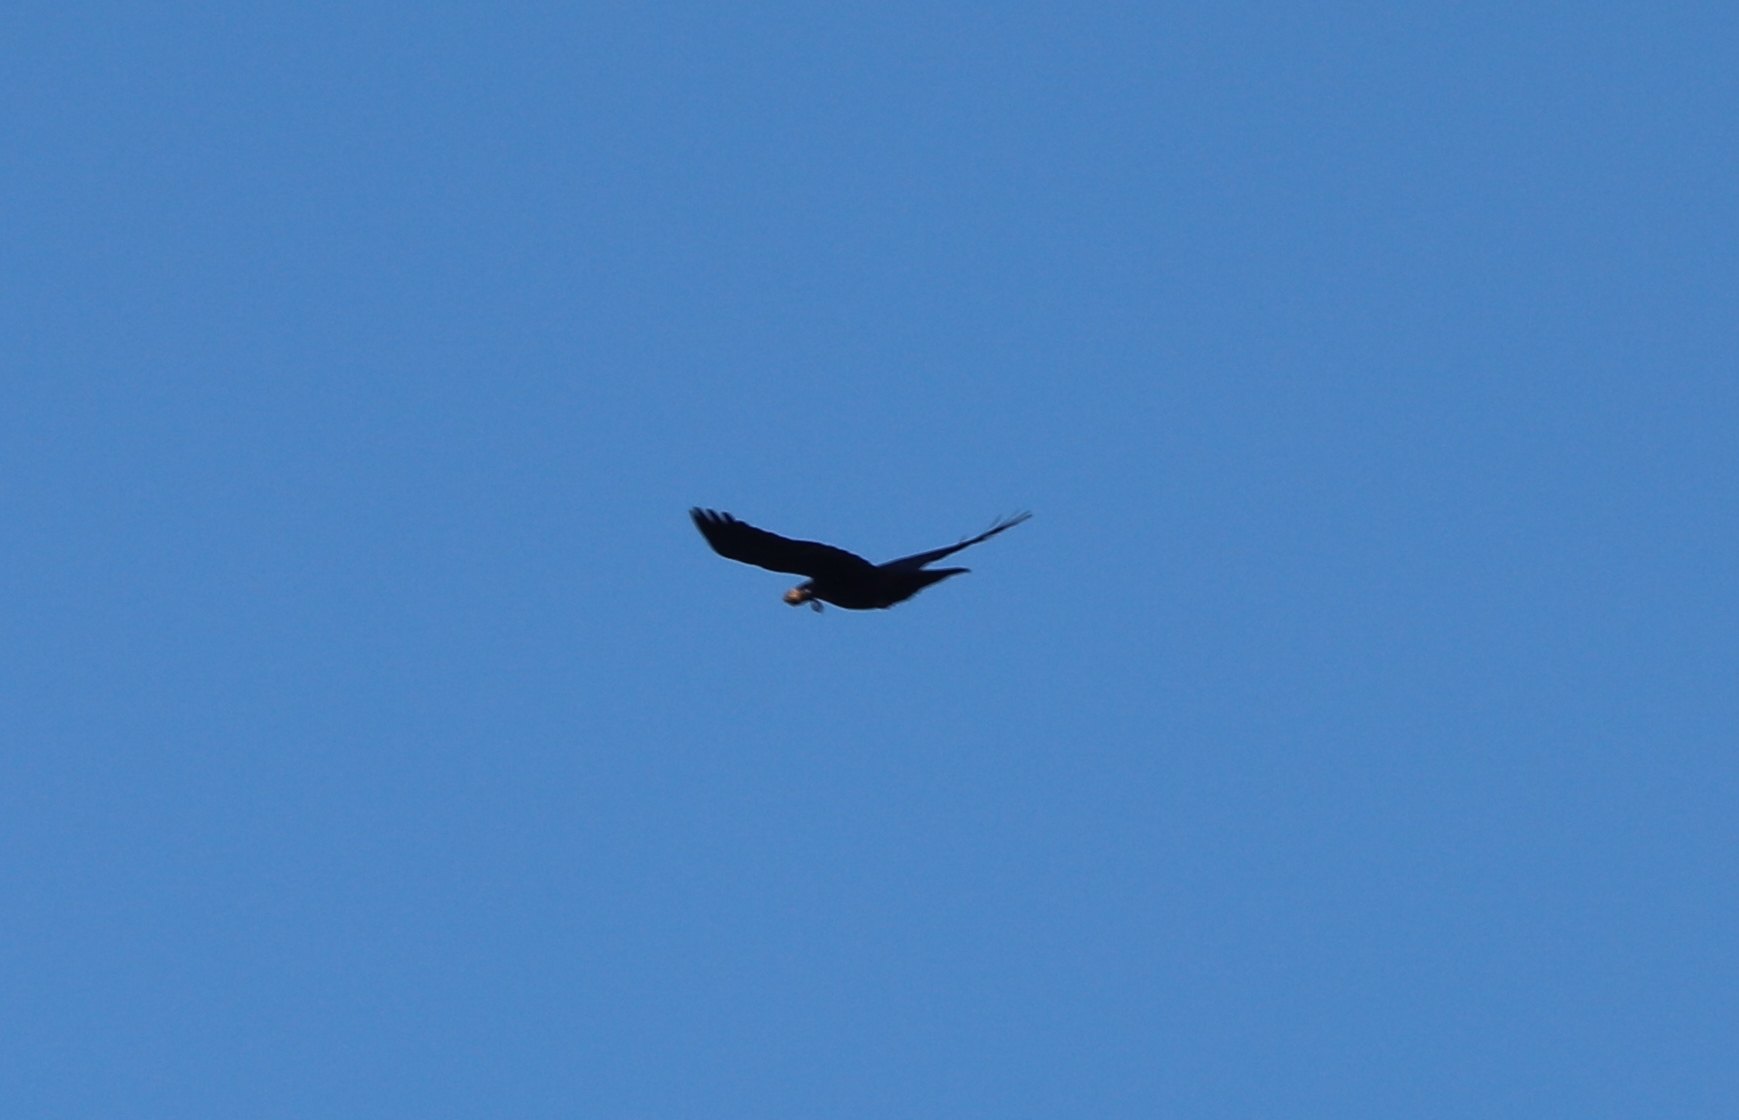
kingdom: Animalia
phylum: Chordata
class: Aves
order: Passeriformes
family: Corvidae
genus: Corvus
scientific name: Corvus
